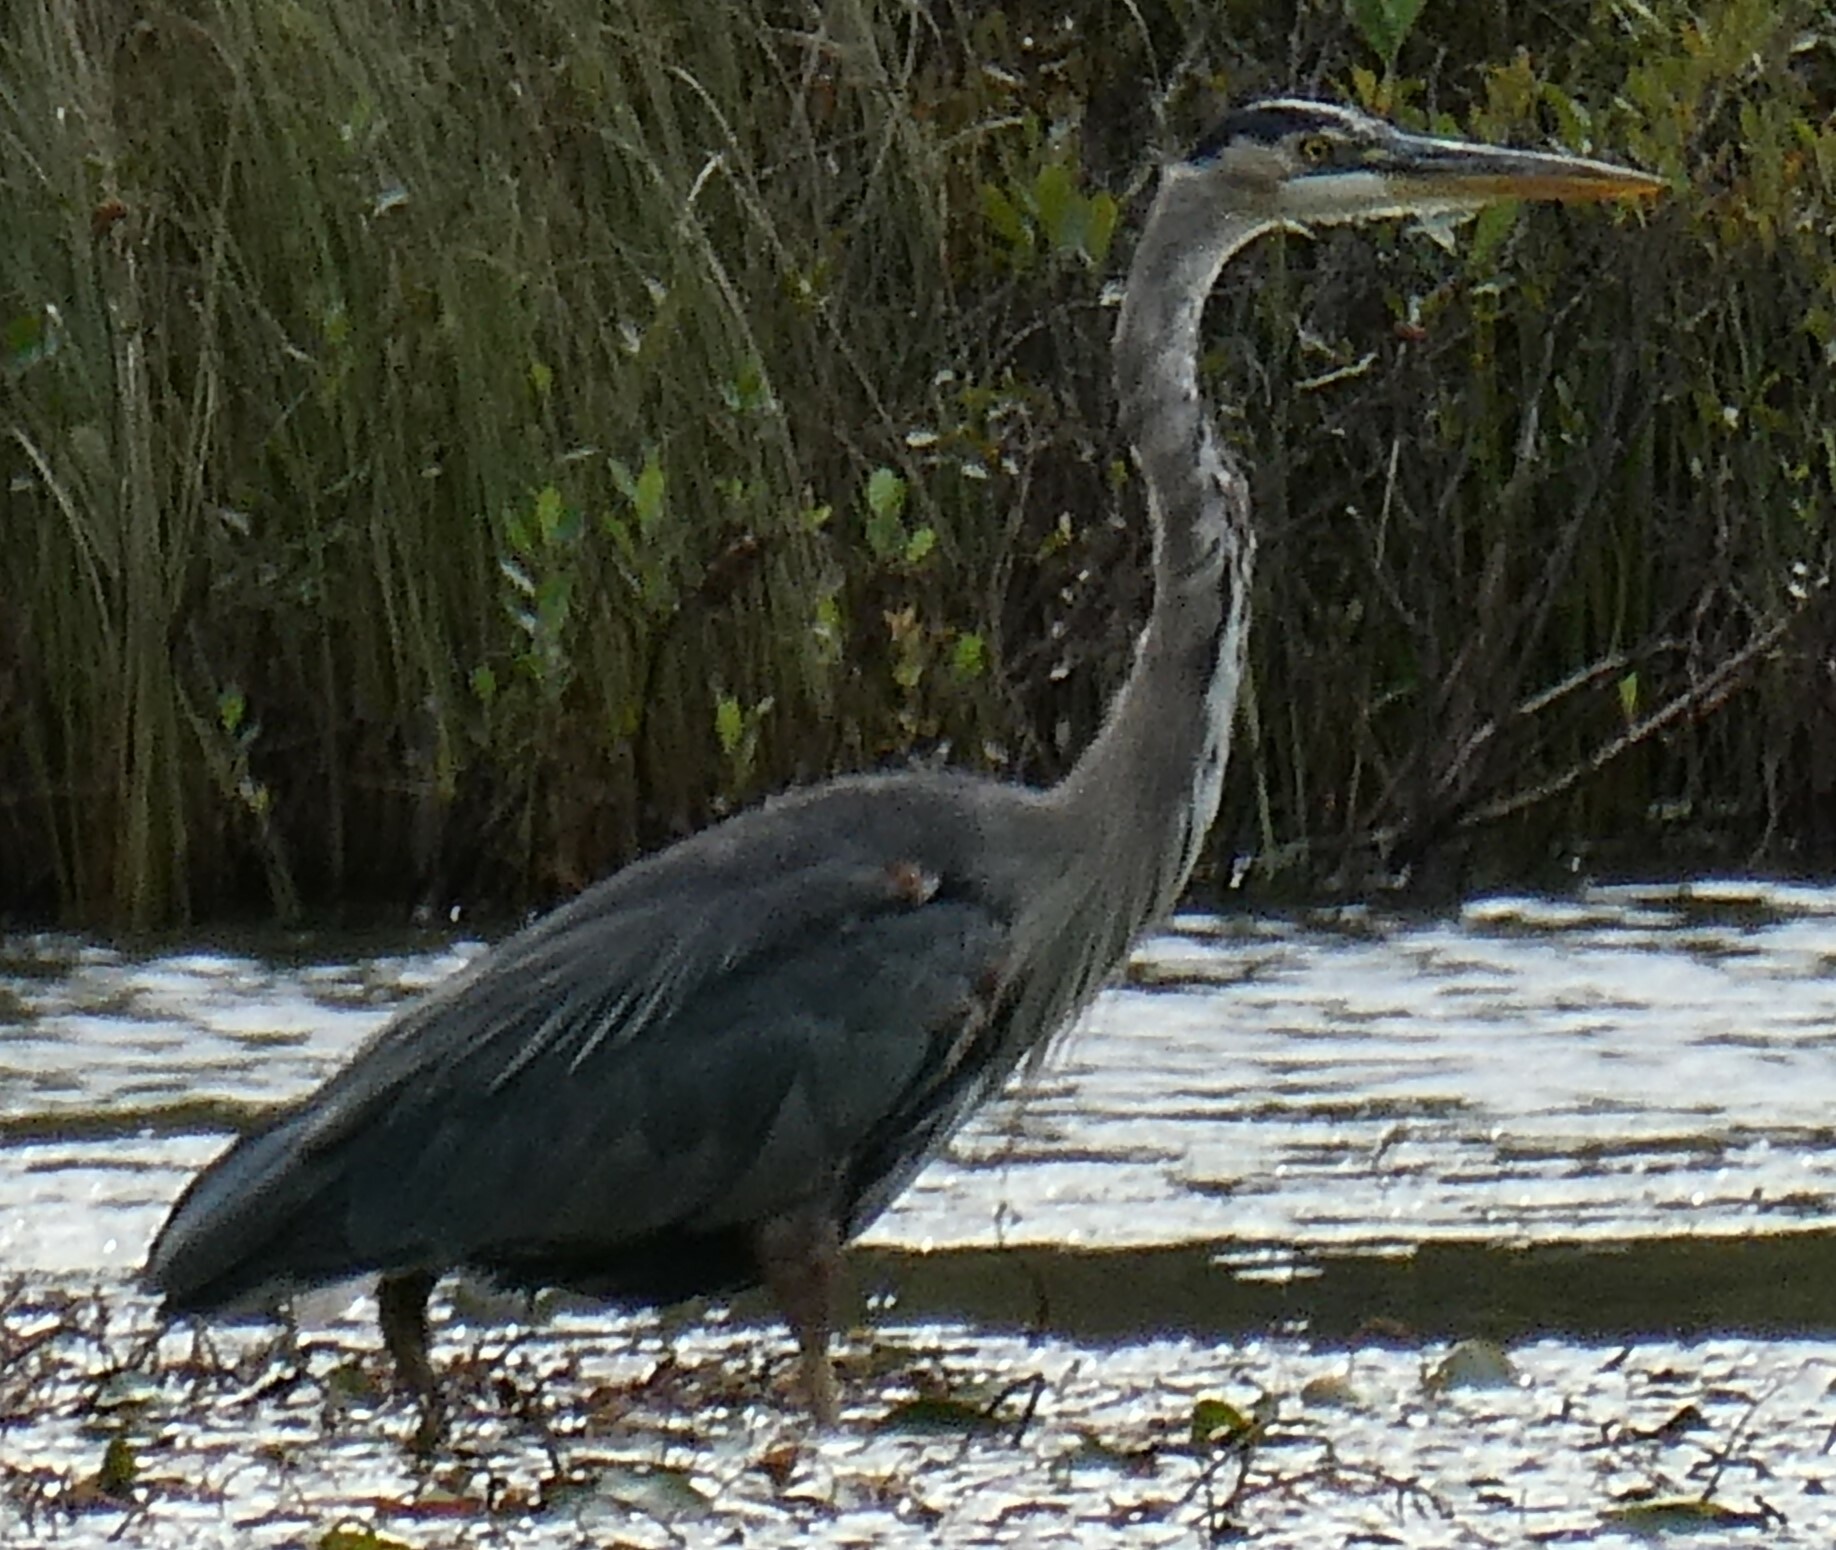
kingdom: Animalia
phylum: Chordata
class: Aves
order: Pelecaniformes
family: Ardeidae
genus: Ardea
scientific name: Ardea herodias
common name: Great blue heron
